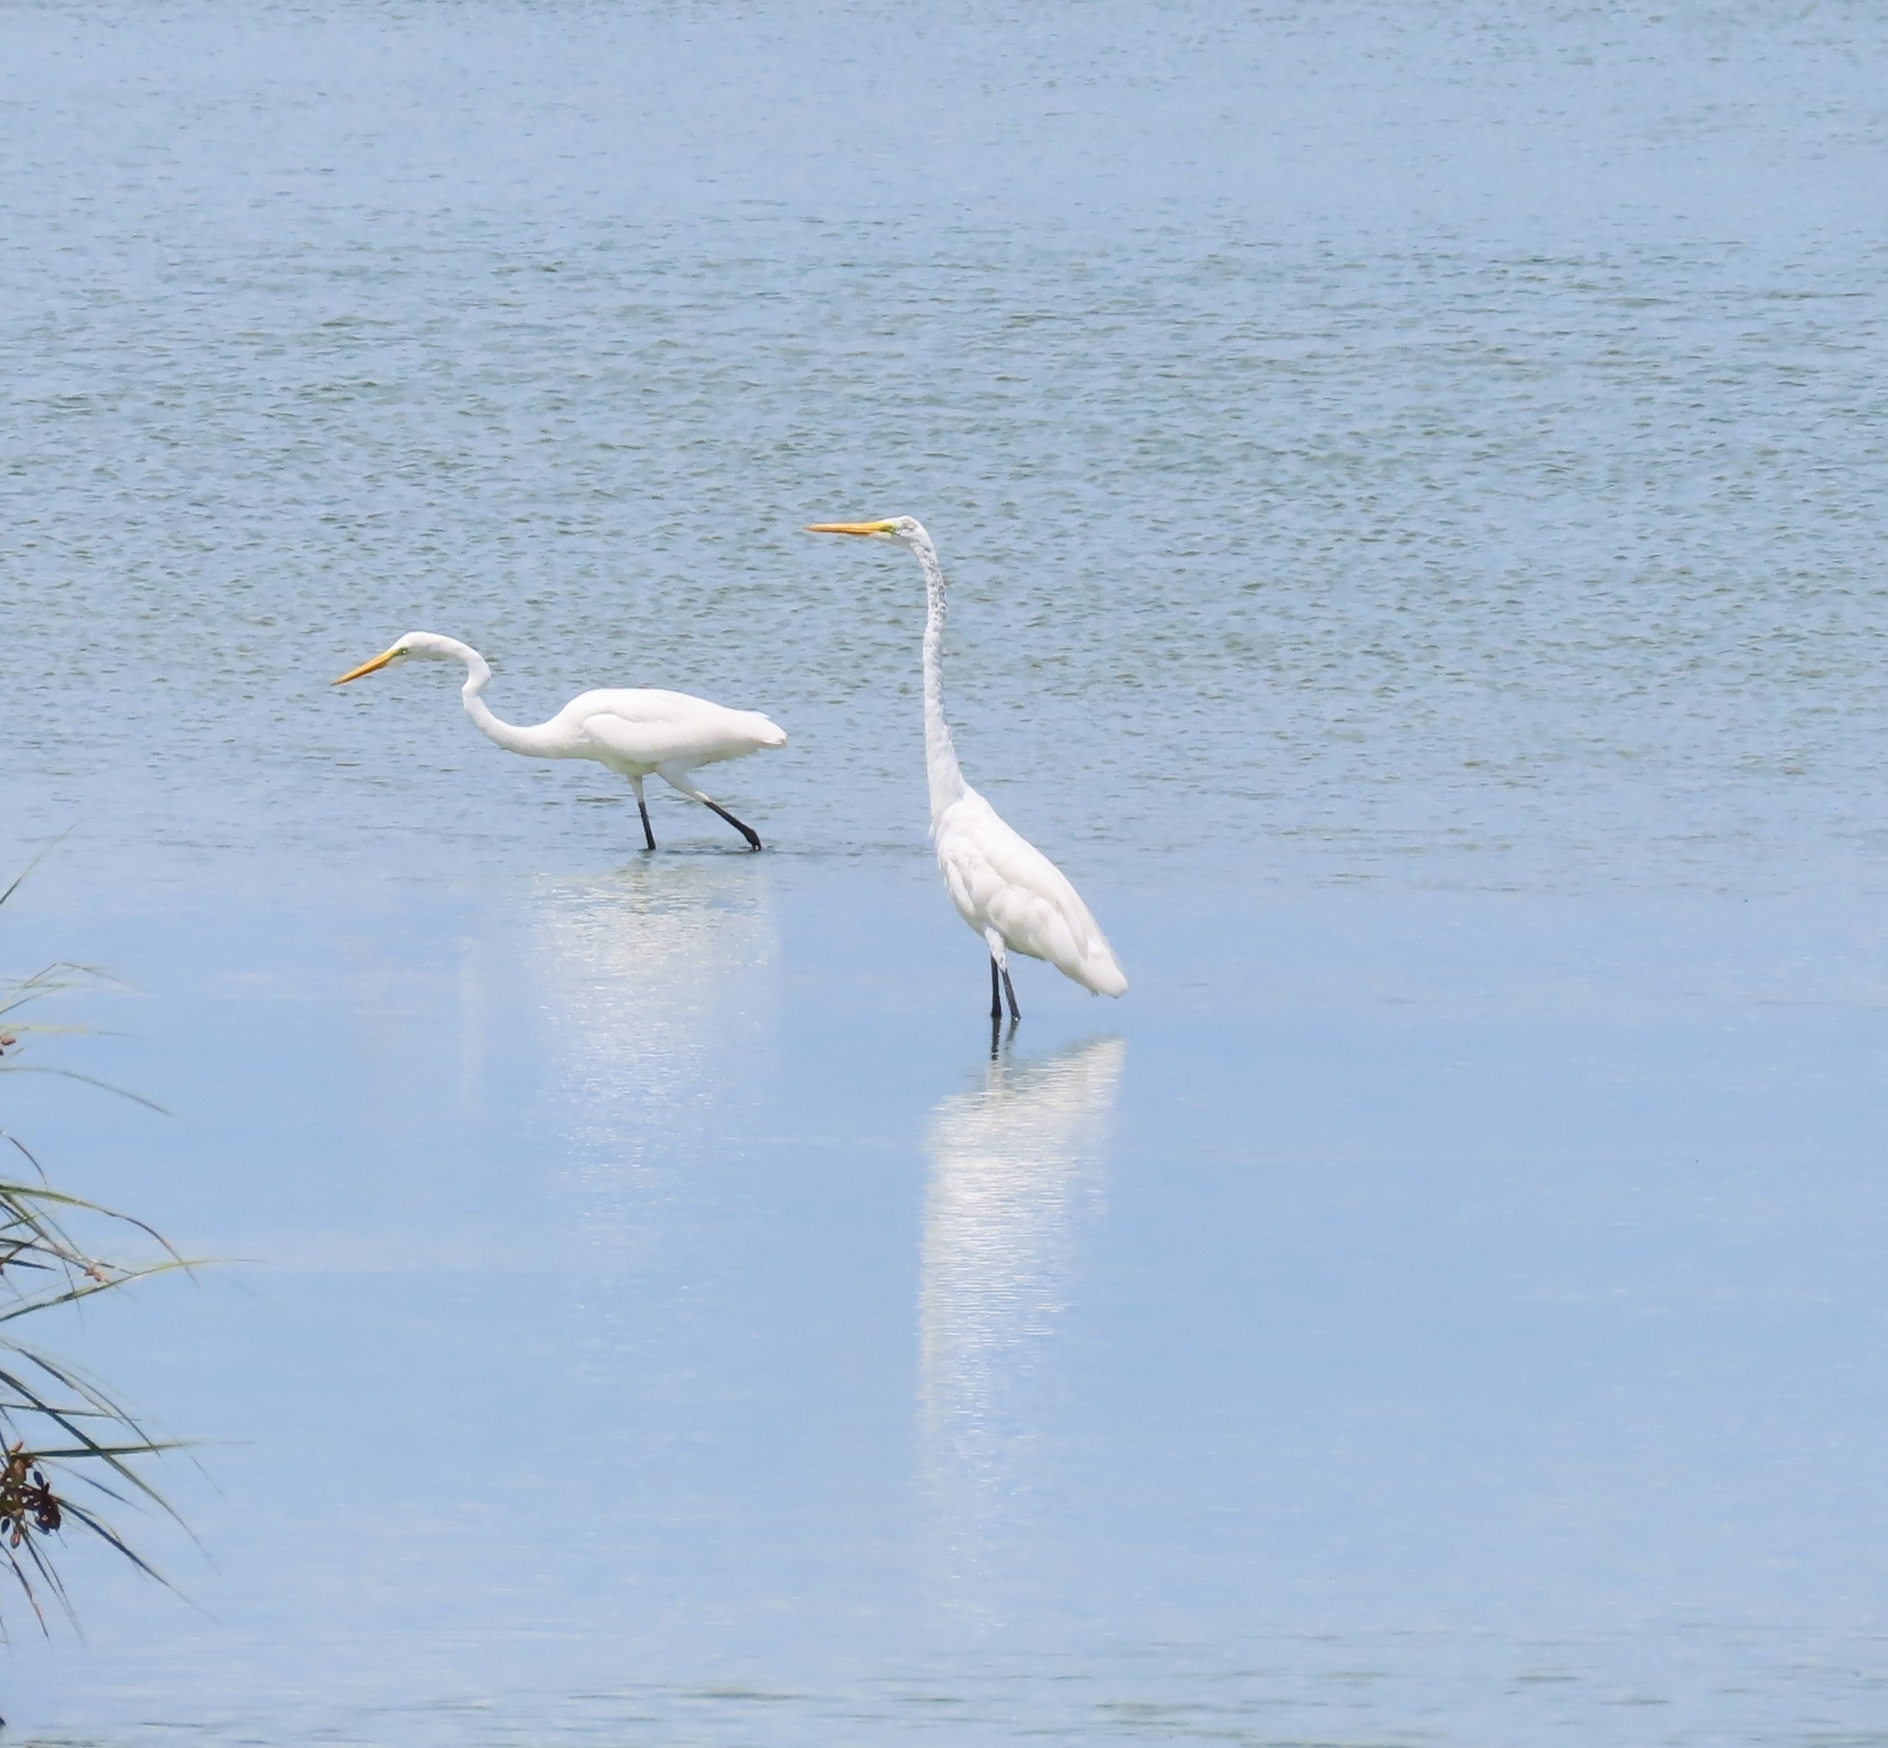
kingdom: Animalia
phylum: Chordata
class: Aves
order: Pelecaniformes
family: Ardeidae
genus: Ardea
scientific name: Ardea alba
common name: Great egret
